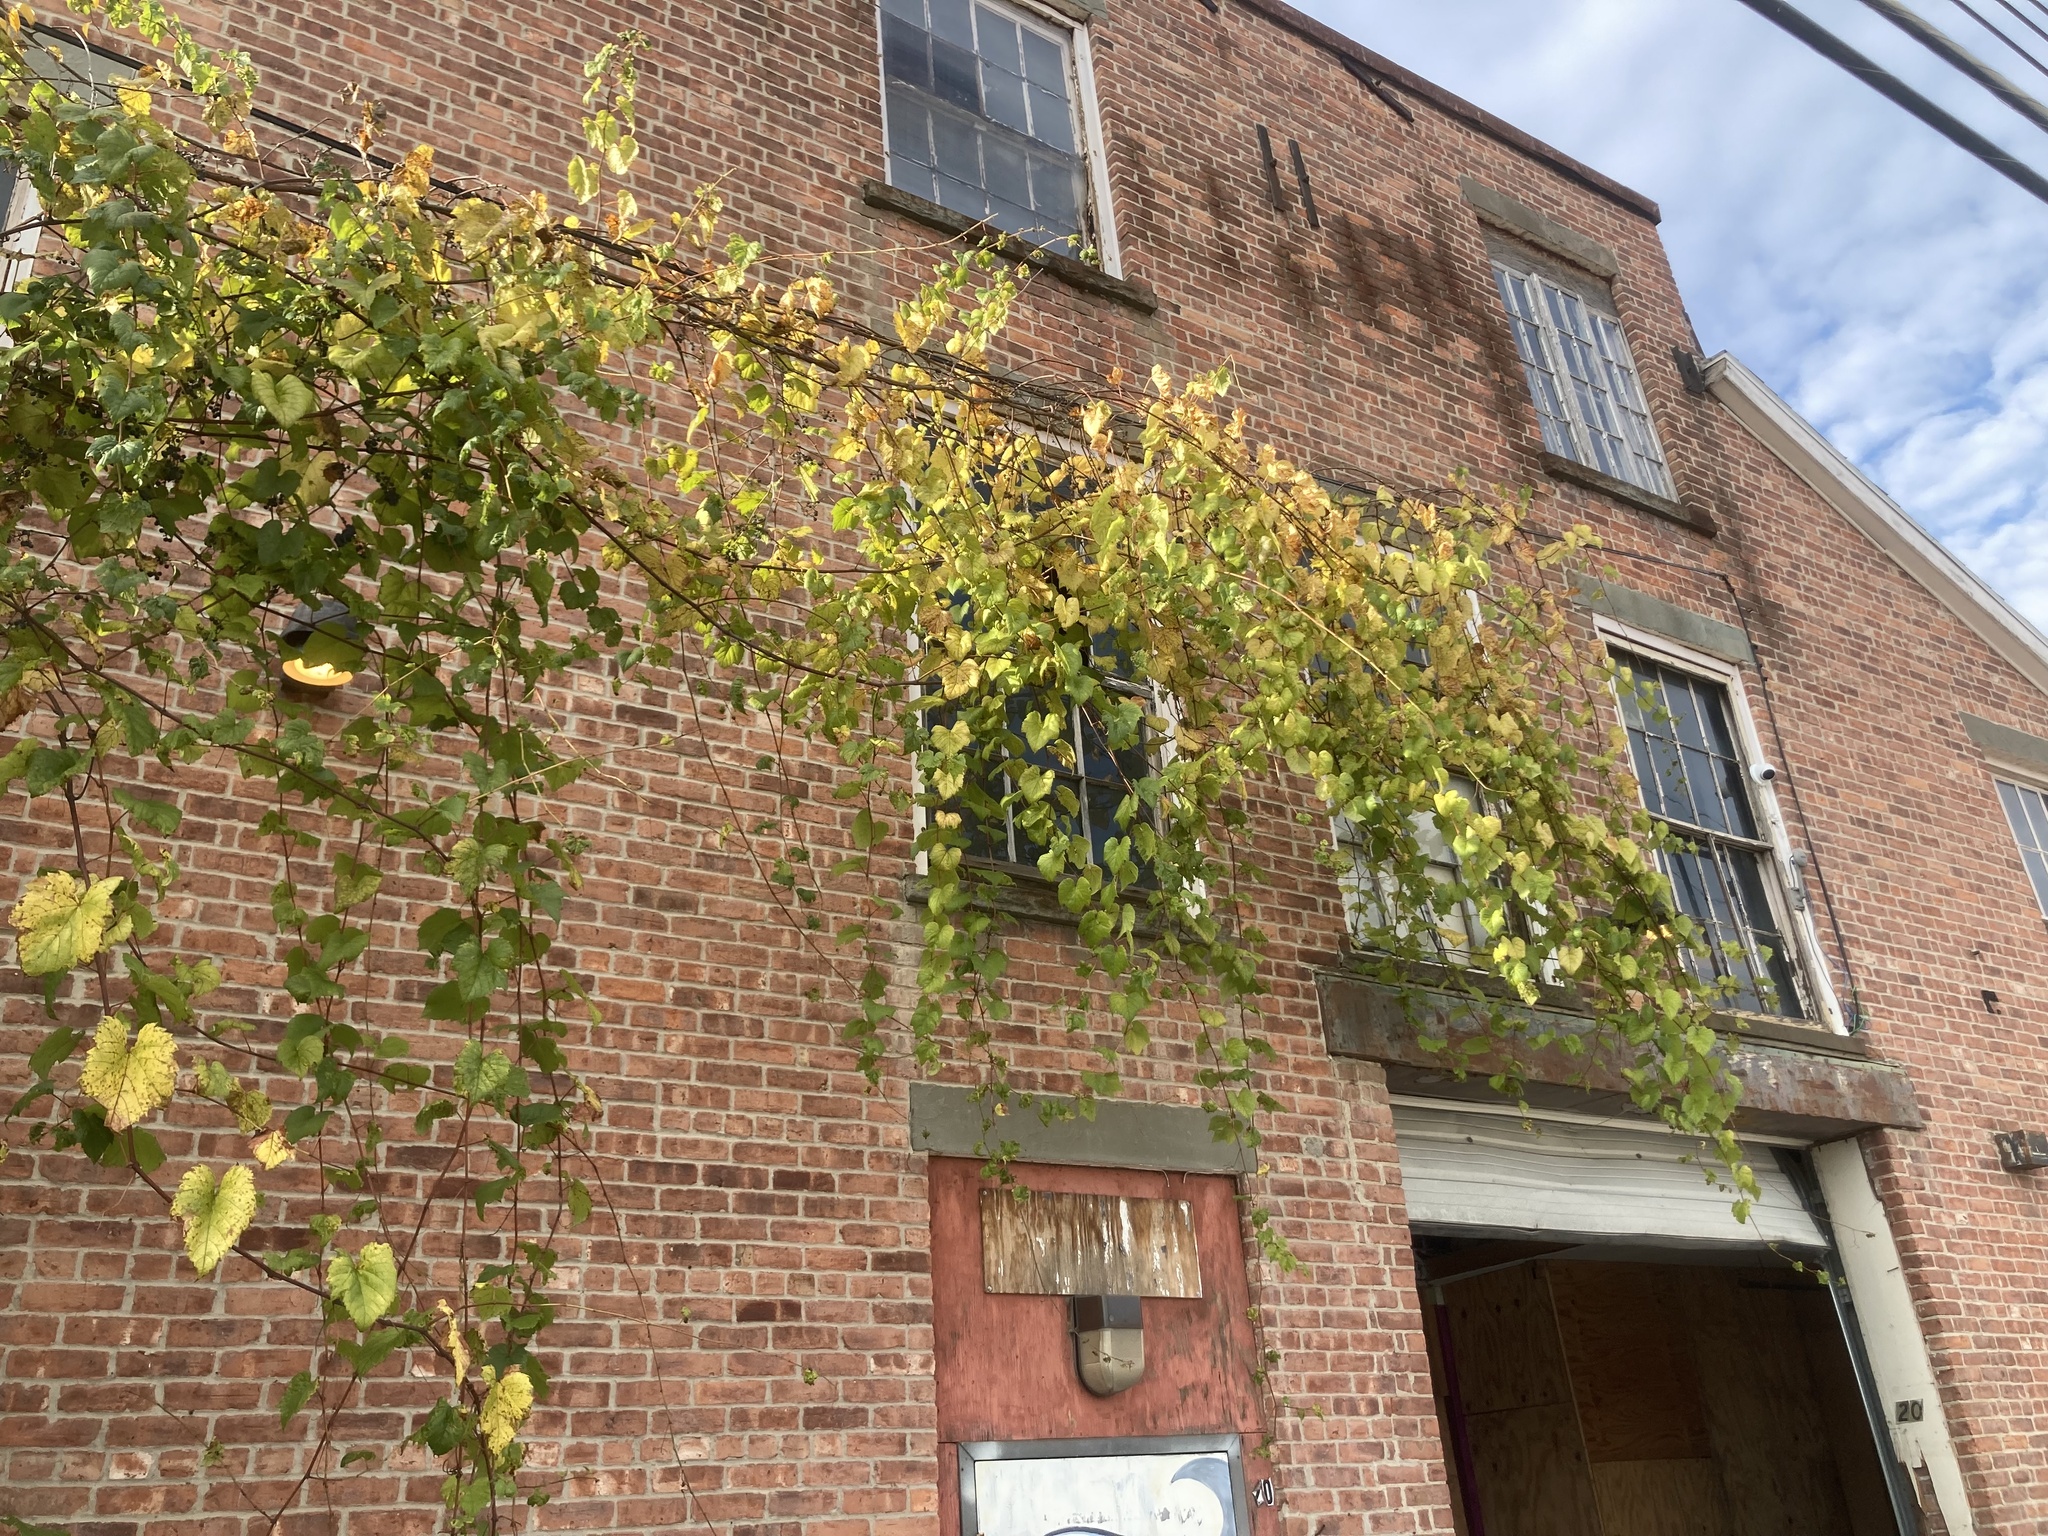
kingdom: Plantae
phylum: Tracheophyta
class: Magnoliopsida
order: Vitales
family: Vitaceae
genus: Vitis
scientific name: Vitis riparia
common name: Frost grape
